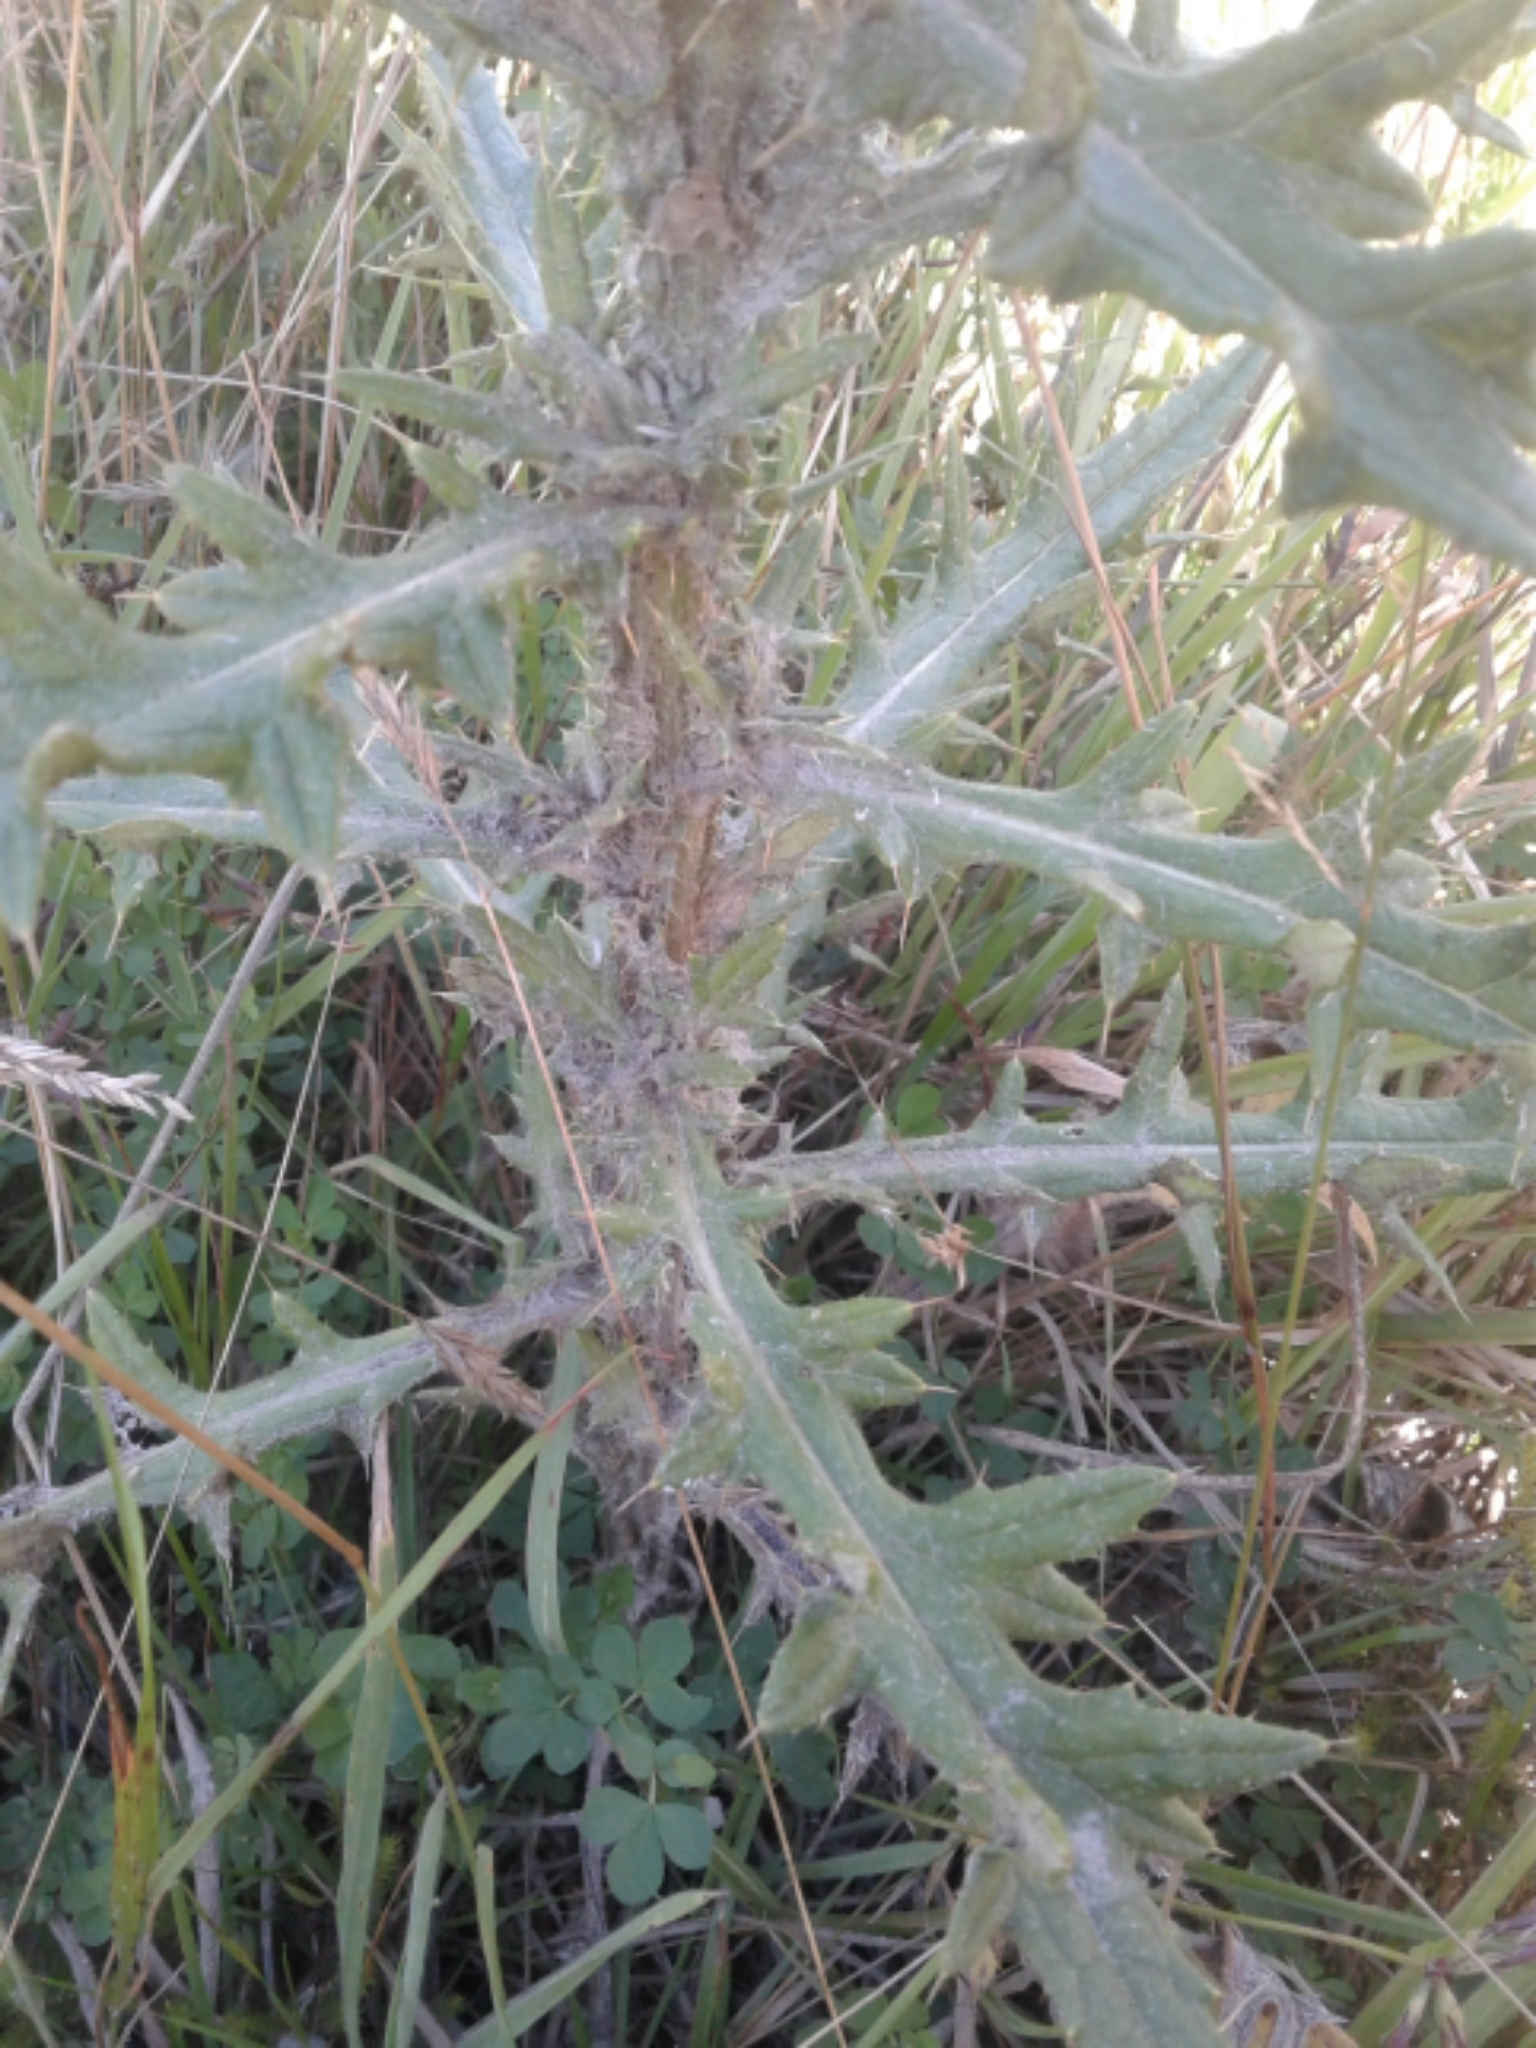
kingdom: Plantae
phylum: Tracheophyta
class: Magnoliopsida
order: Asterales
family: Asteraceae
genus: Cirsium
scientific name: Cirsium vulgare
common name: Bull thistle
